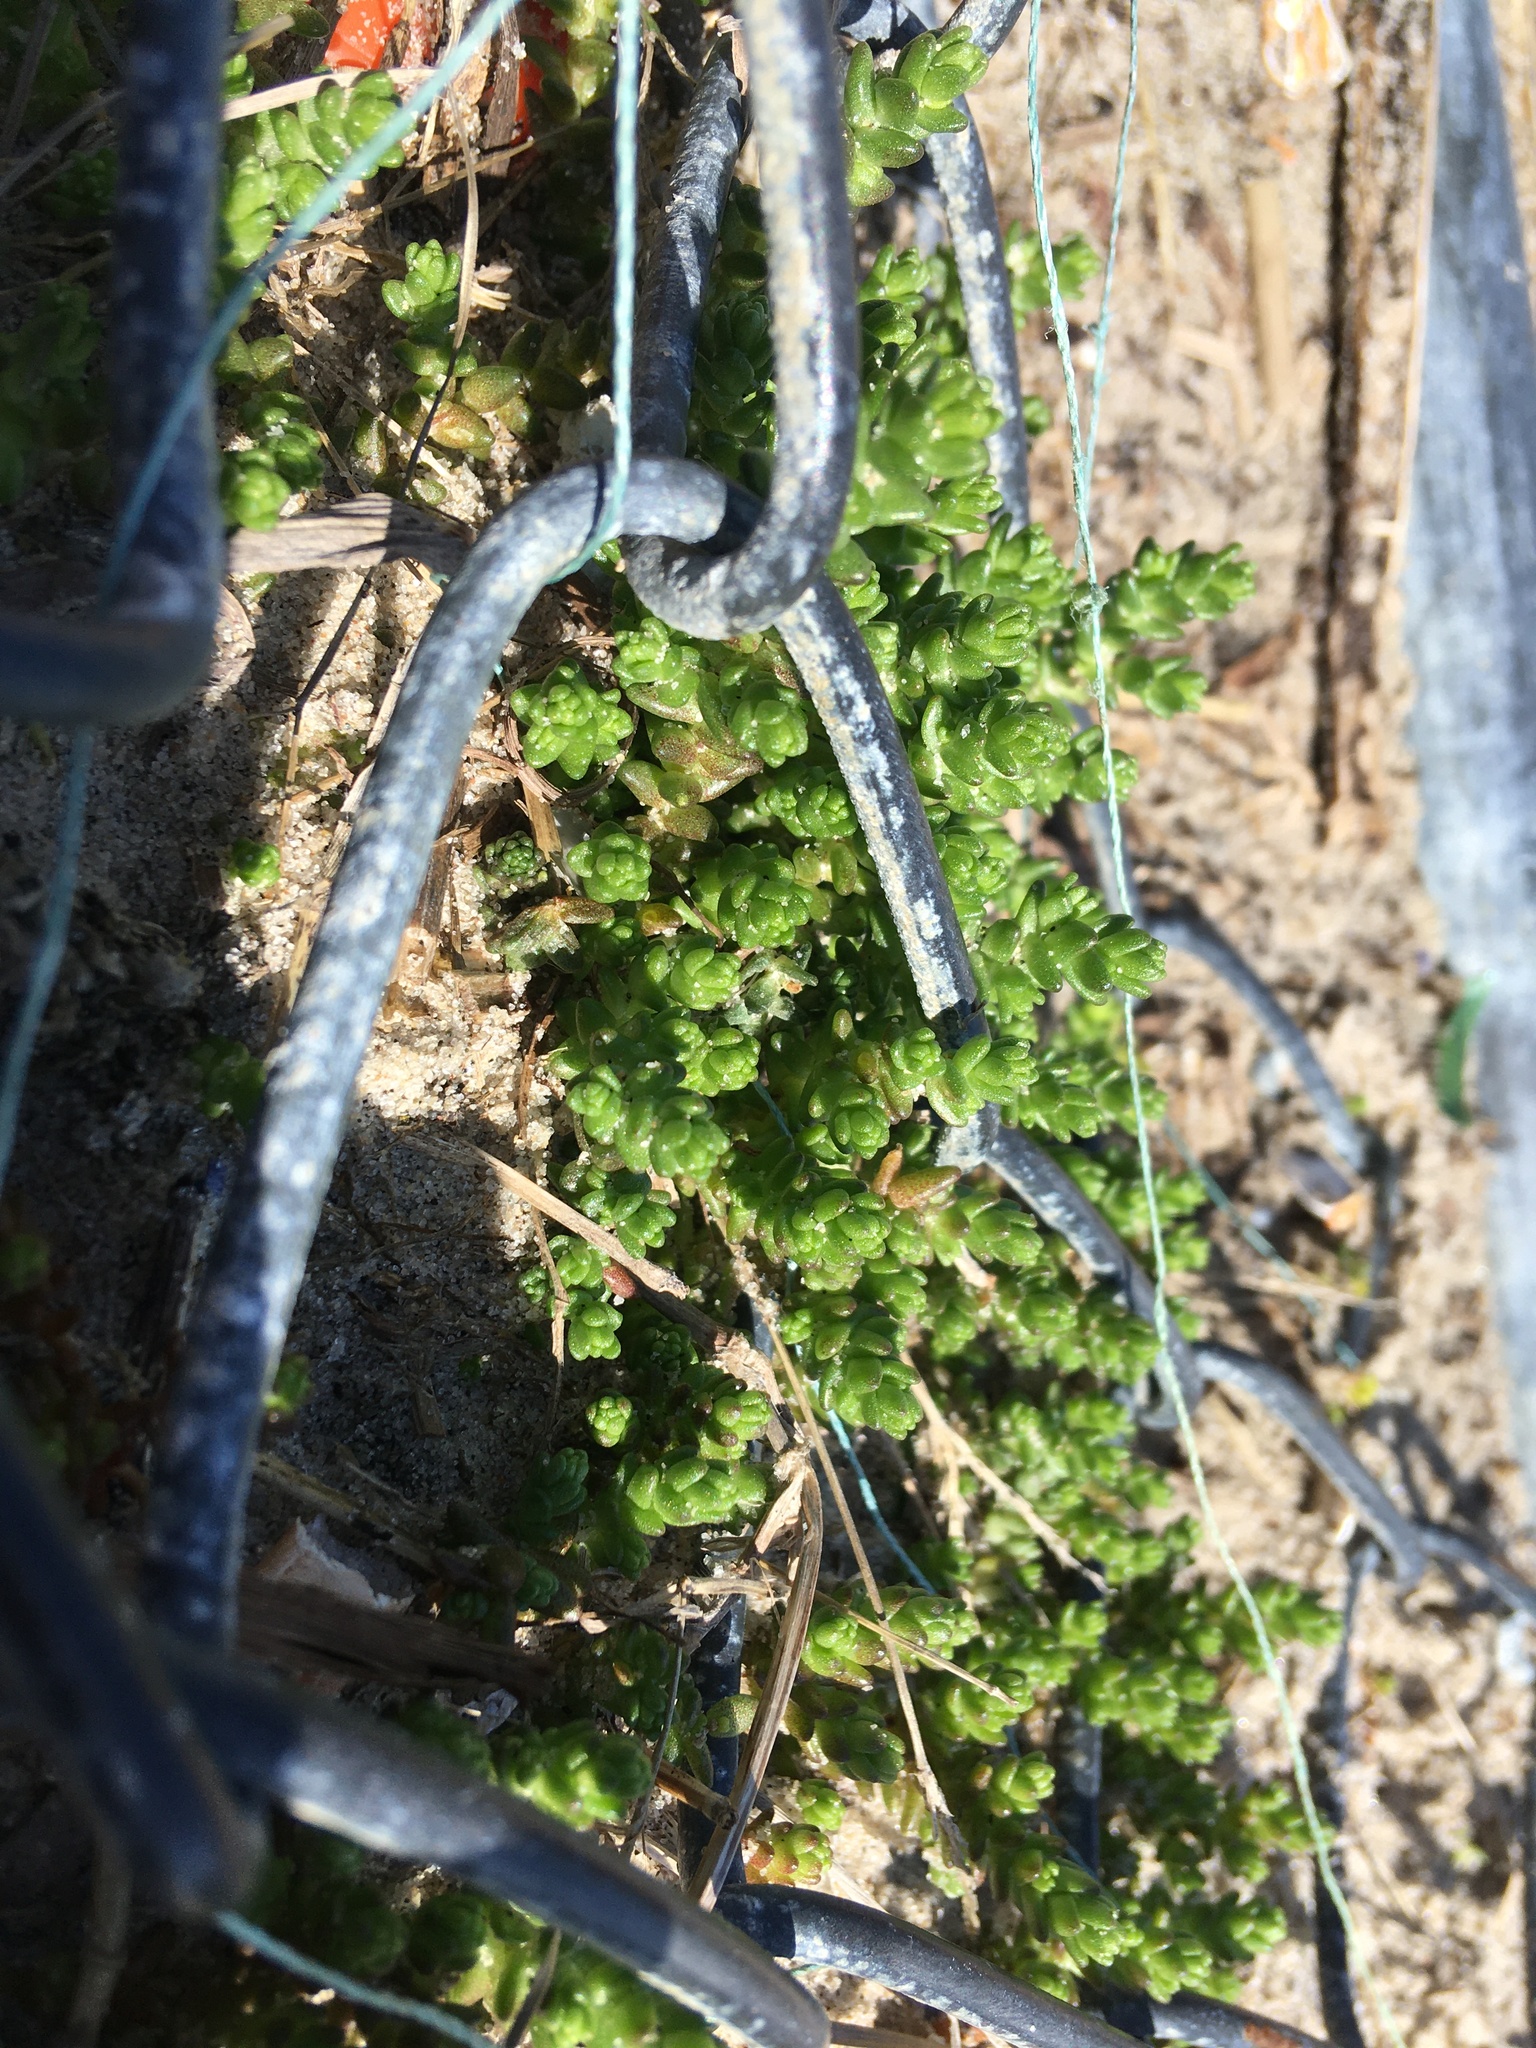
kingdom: Plantae
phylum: Tracheophyta
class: Magnoliopsida
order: Saxifragales
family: Crassulaceae
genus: Sedum
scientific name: Sedum acre
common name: Biting stonecrop
